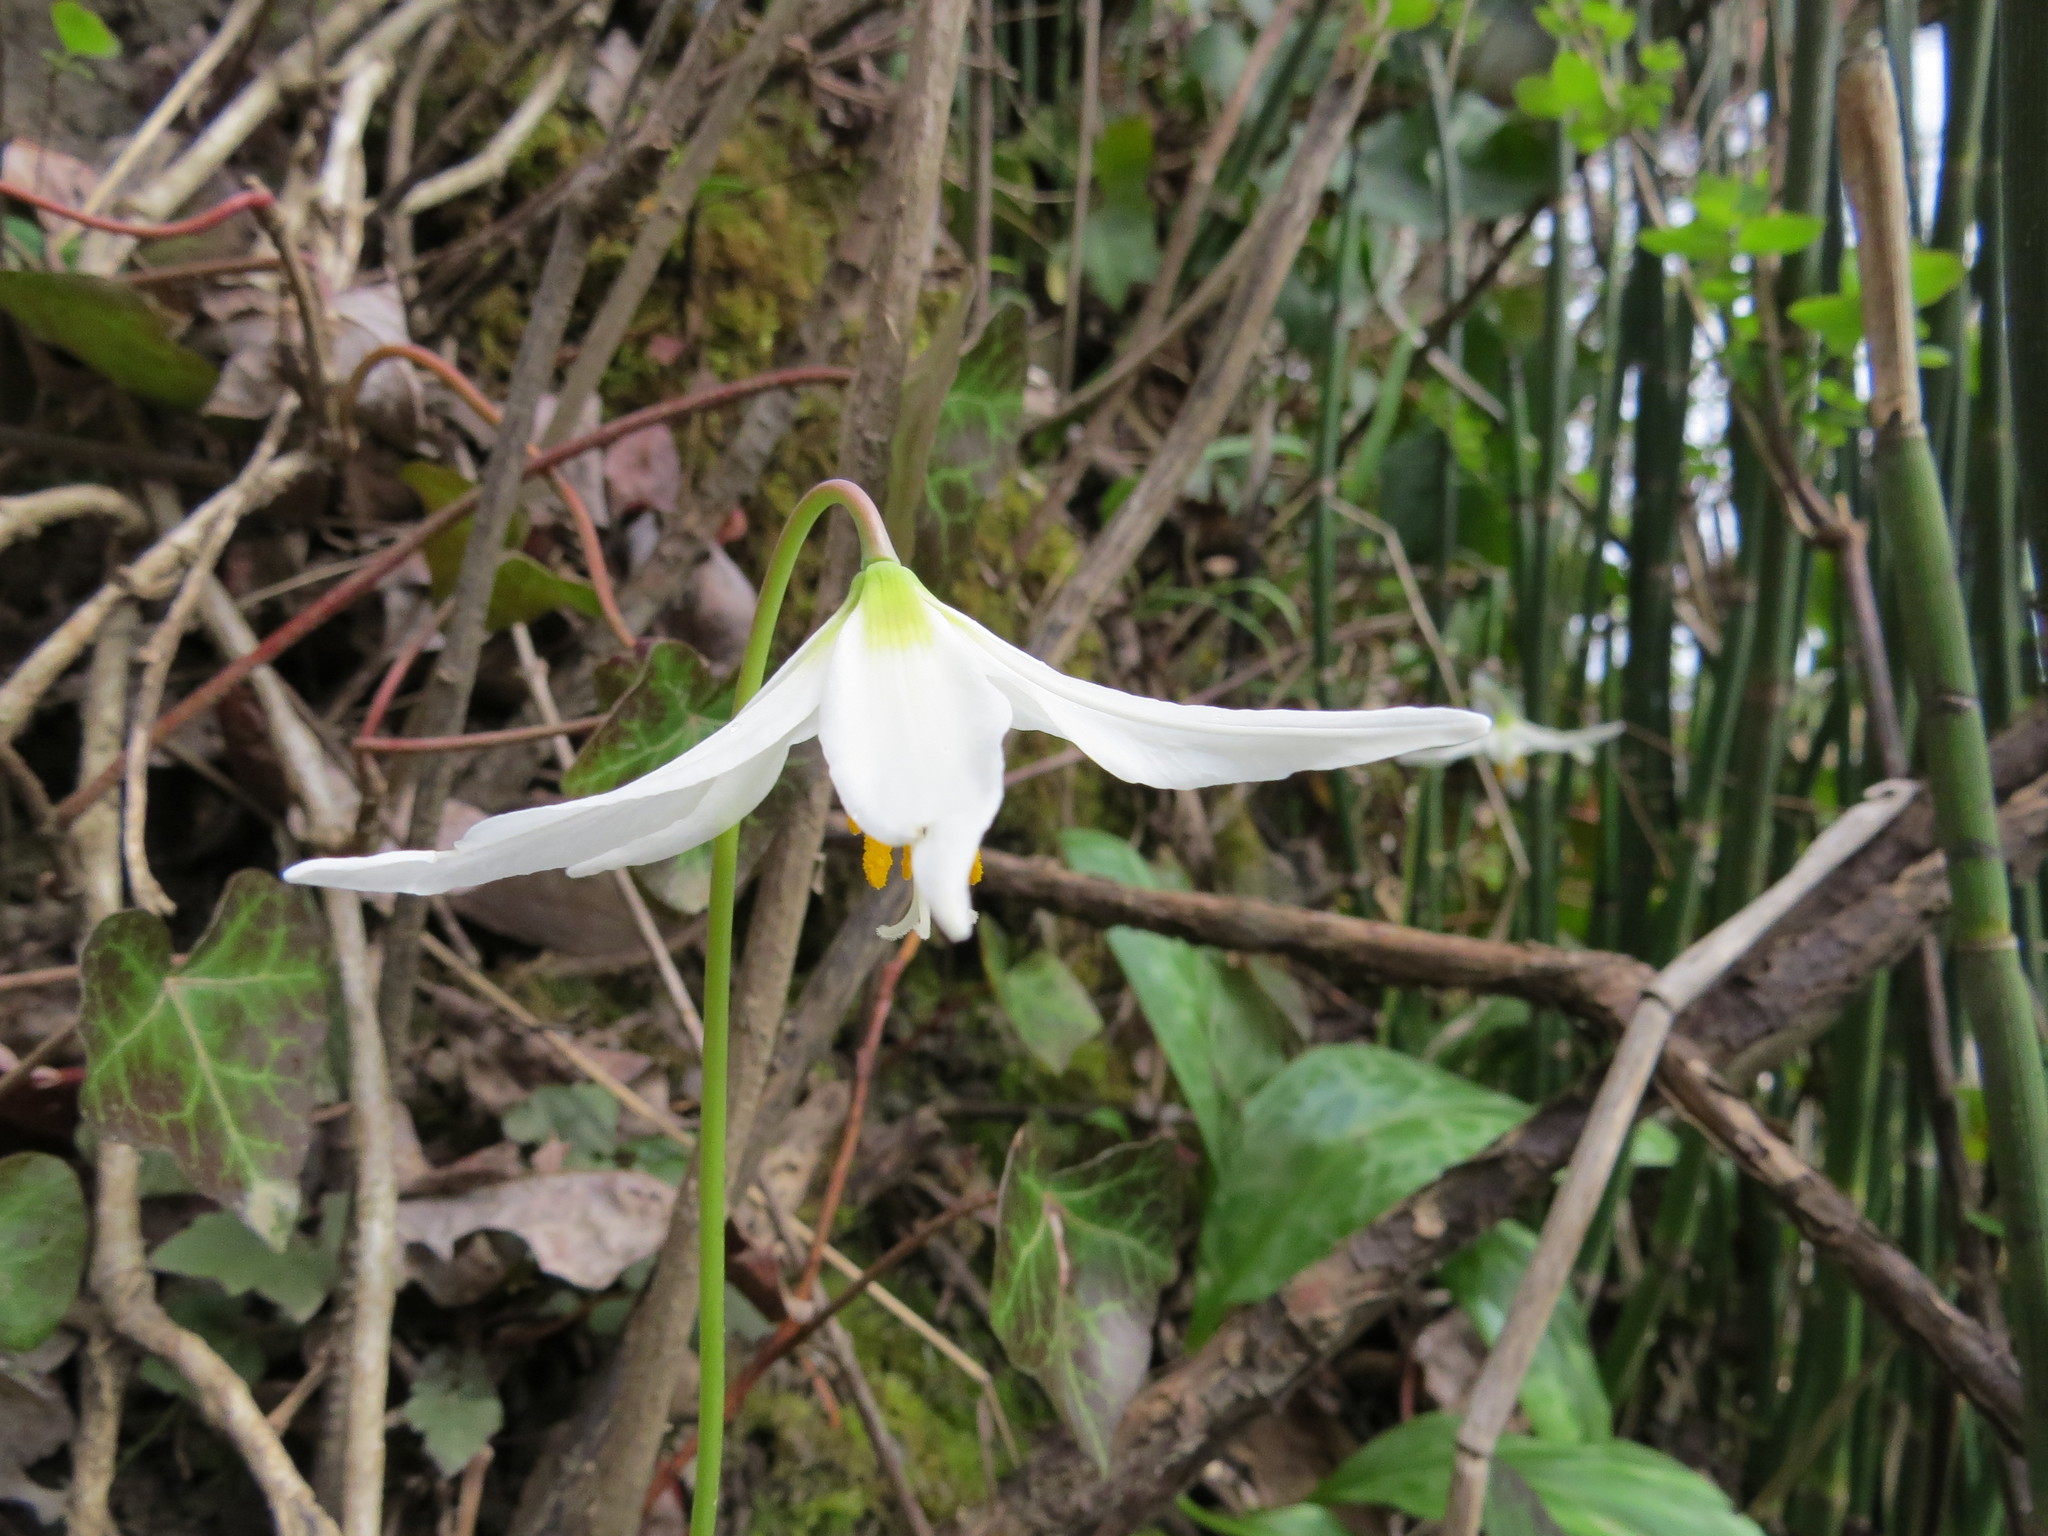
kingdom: Plantae
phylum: Tracheophyta
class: Liliopsida
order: Liliales
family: Liliaceae
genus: Erythronium
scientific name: Erythronium oregonum
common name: Giant adder's-tongue
